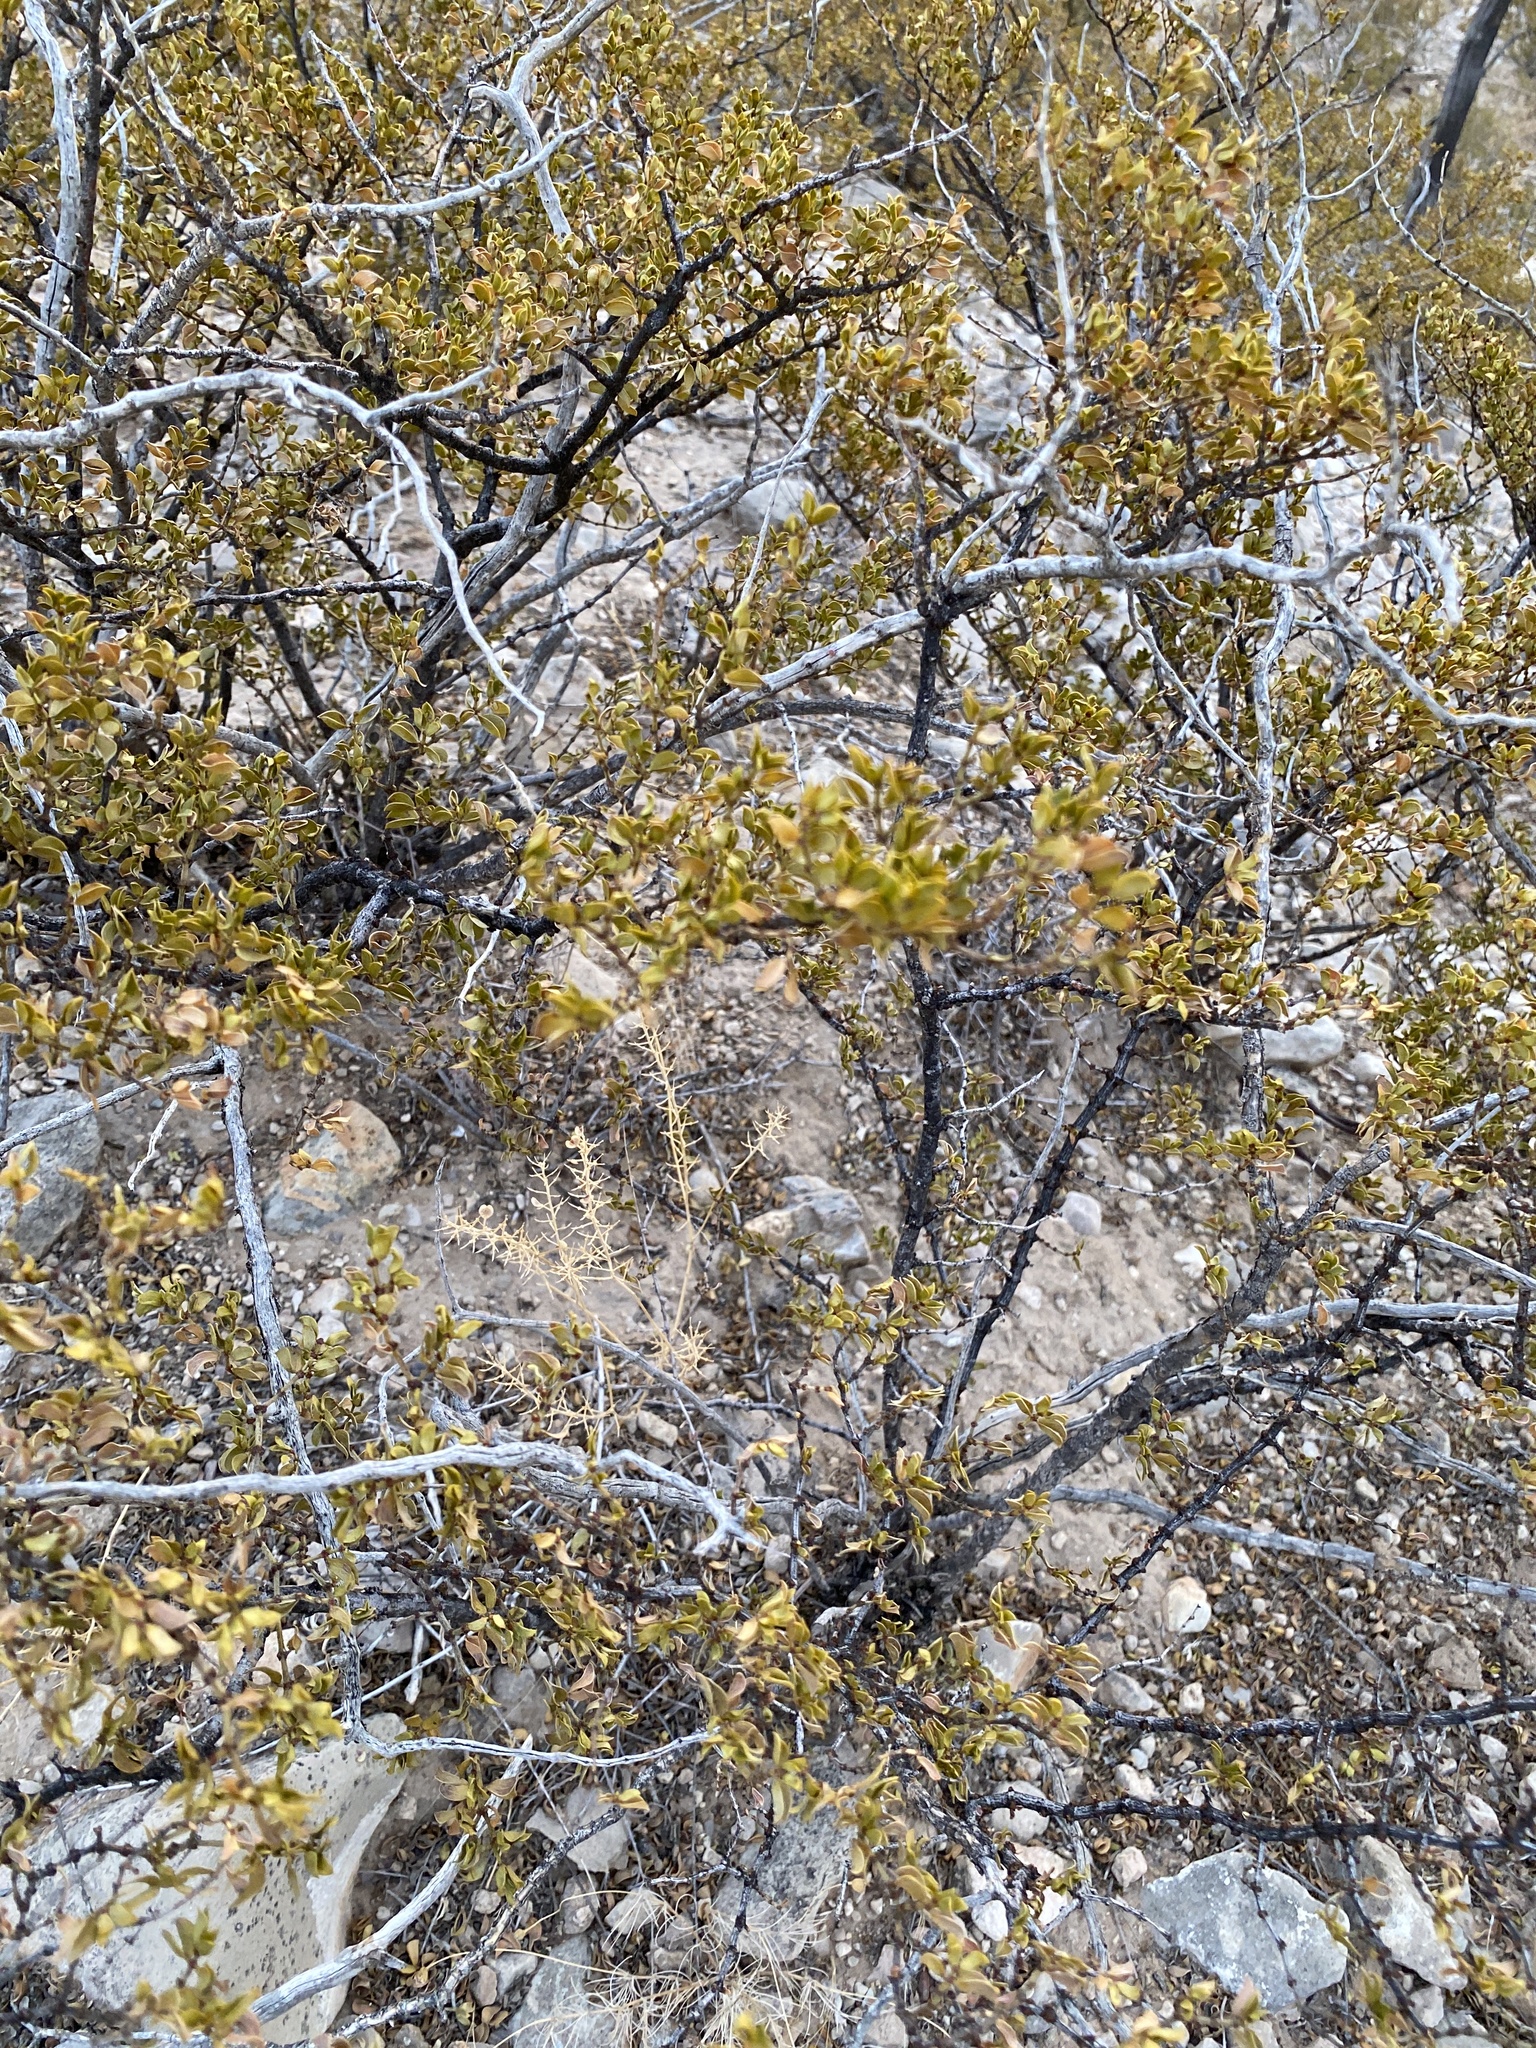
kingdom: Plantae
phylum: Tracheophyta
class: Magnoliopsida
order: Zygophyllales
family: Zygophyllaceae
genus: Larrea
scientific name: Larrea tridentata
